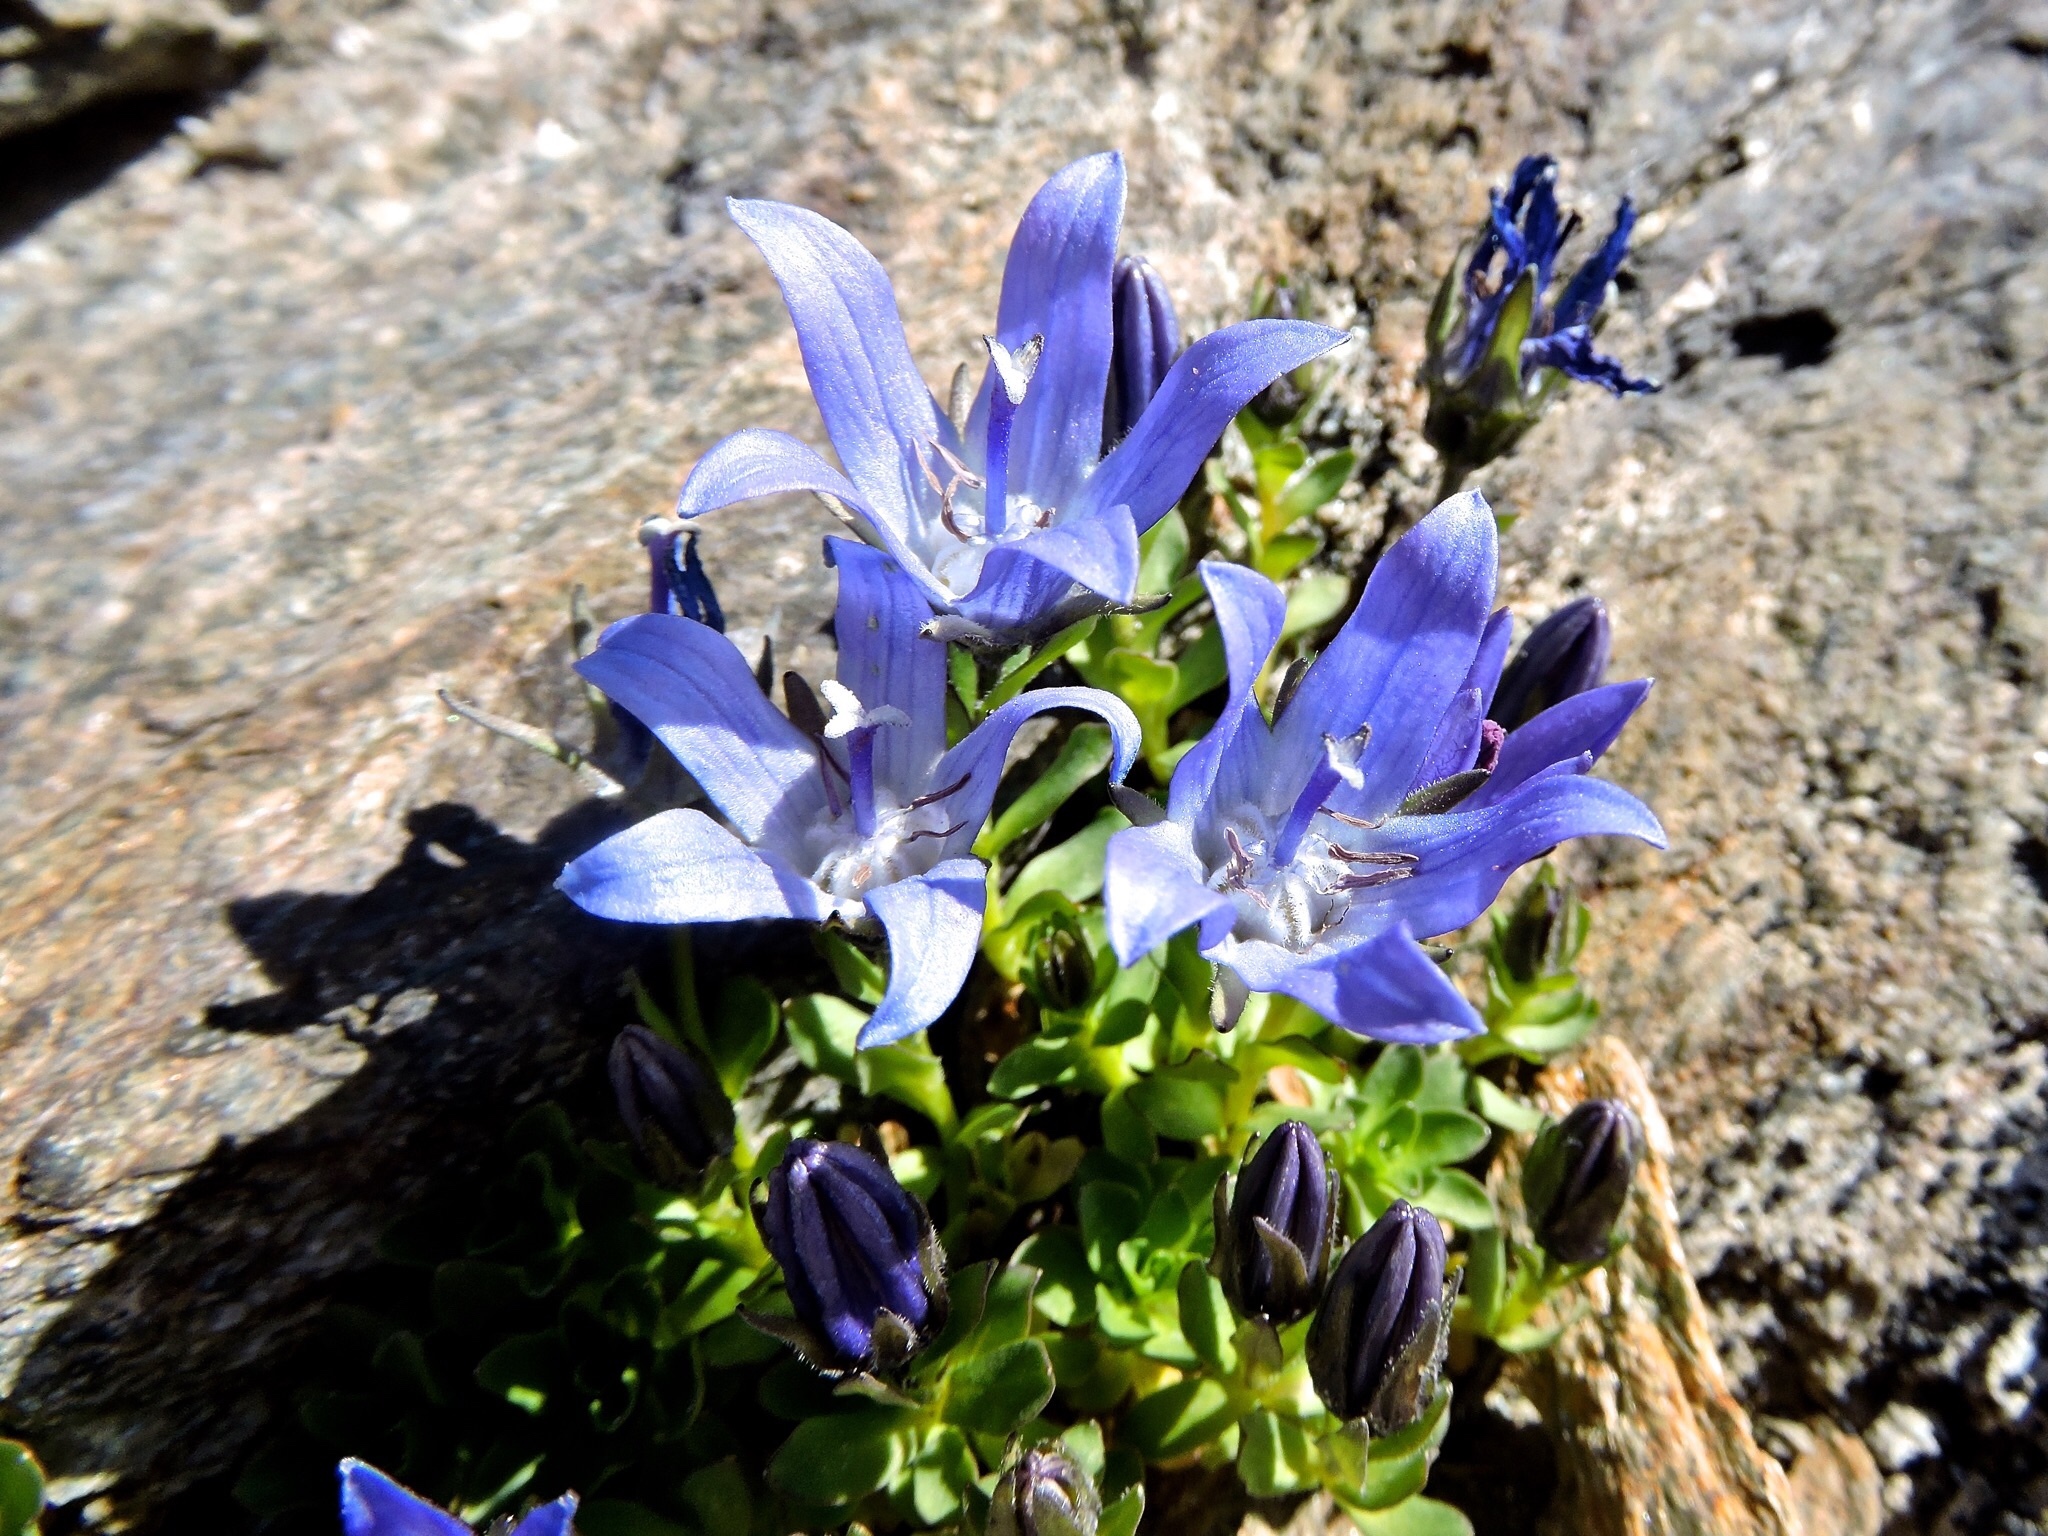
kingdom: Plantae
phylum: Tracheophyta
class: Magnoliopsida
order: Asterales
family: Campanulaceae
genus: Campanula
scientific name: Campanula cenisia
